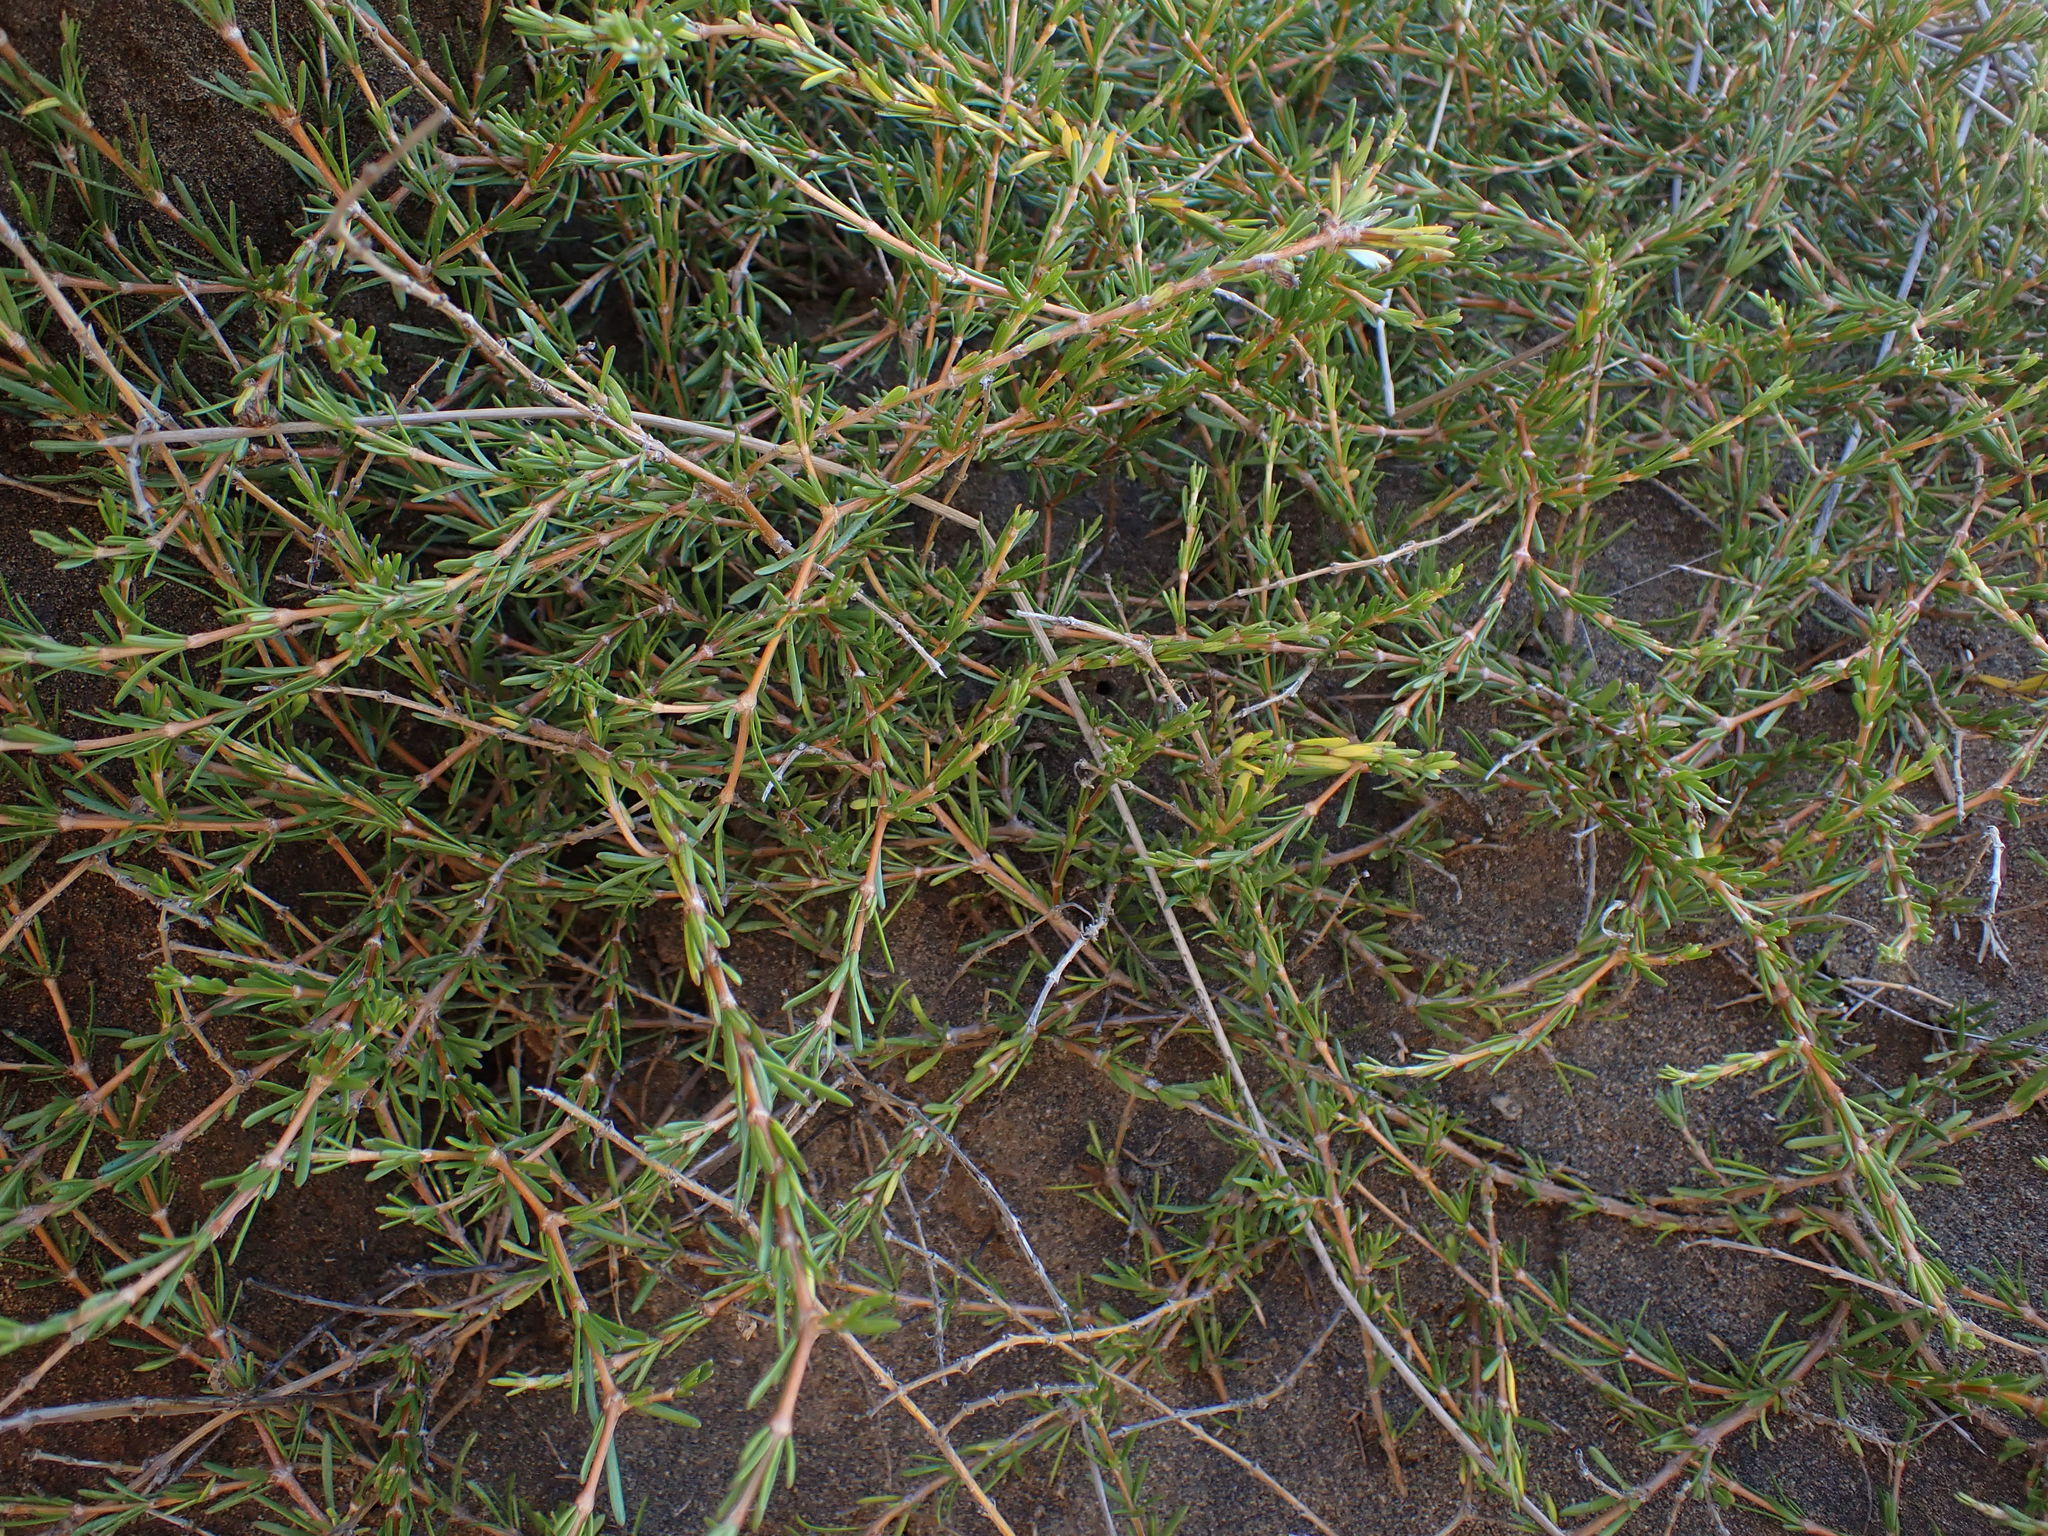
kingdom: Plantae
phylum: Tracheophyta
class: Magnoliopsida
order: Gentianales
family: Rubiaceae
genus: Coprosma
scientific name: Coprosma acerosa
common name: Sand coprosma
